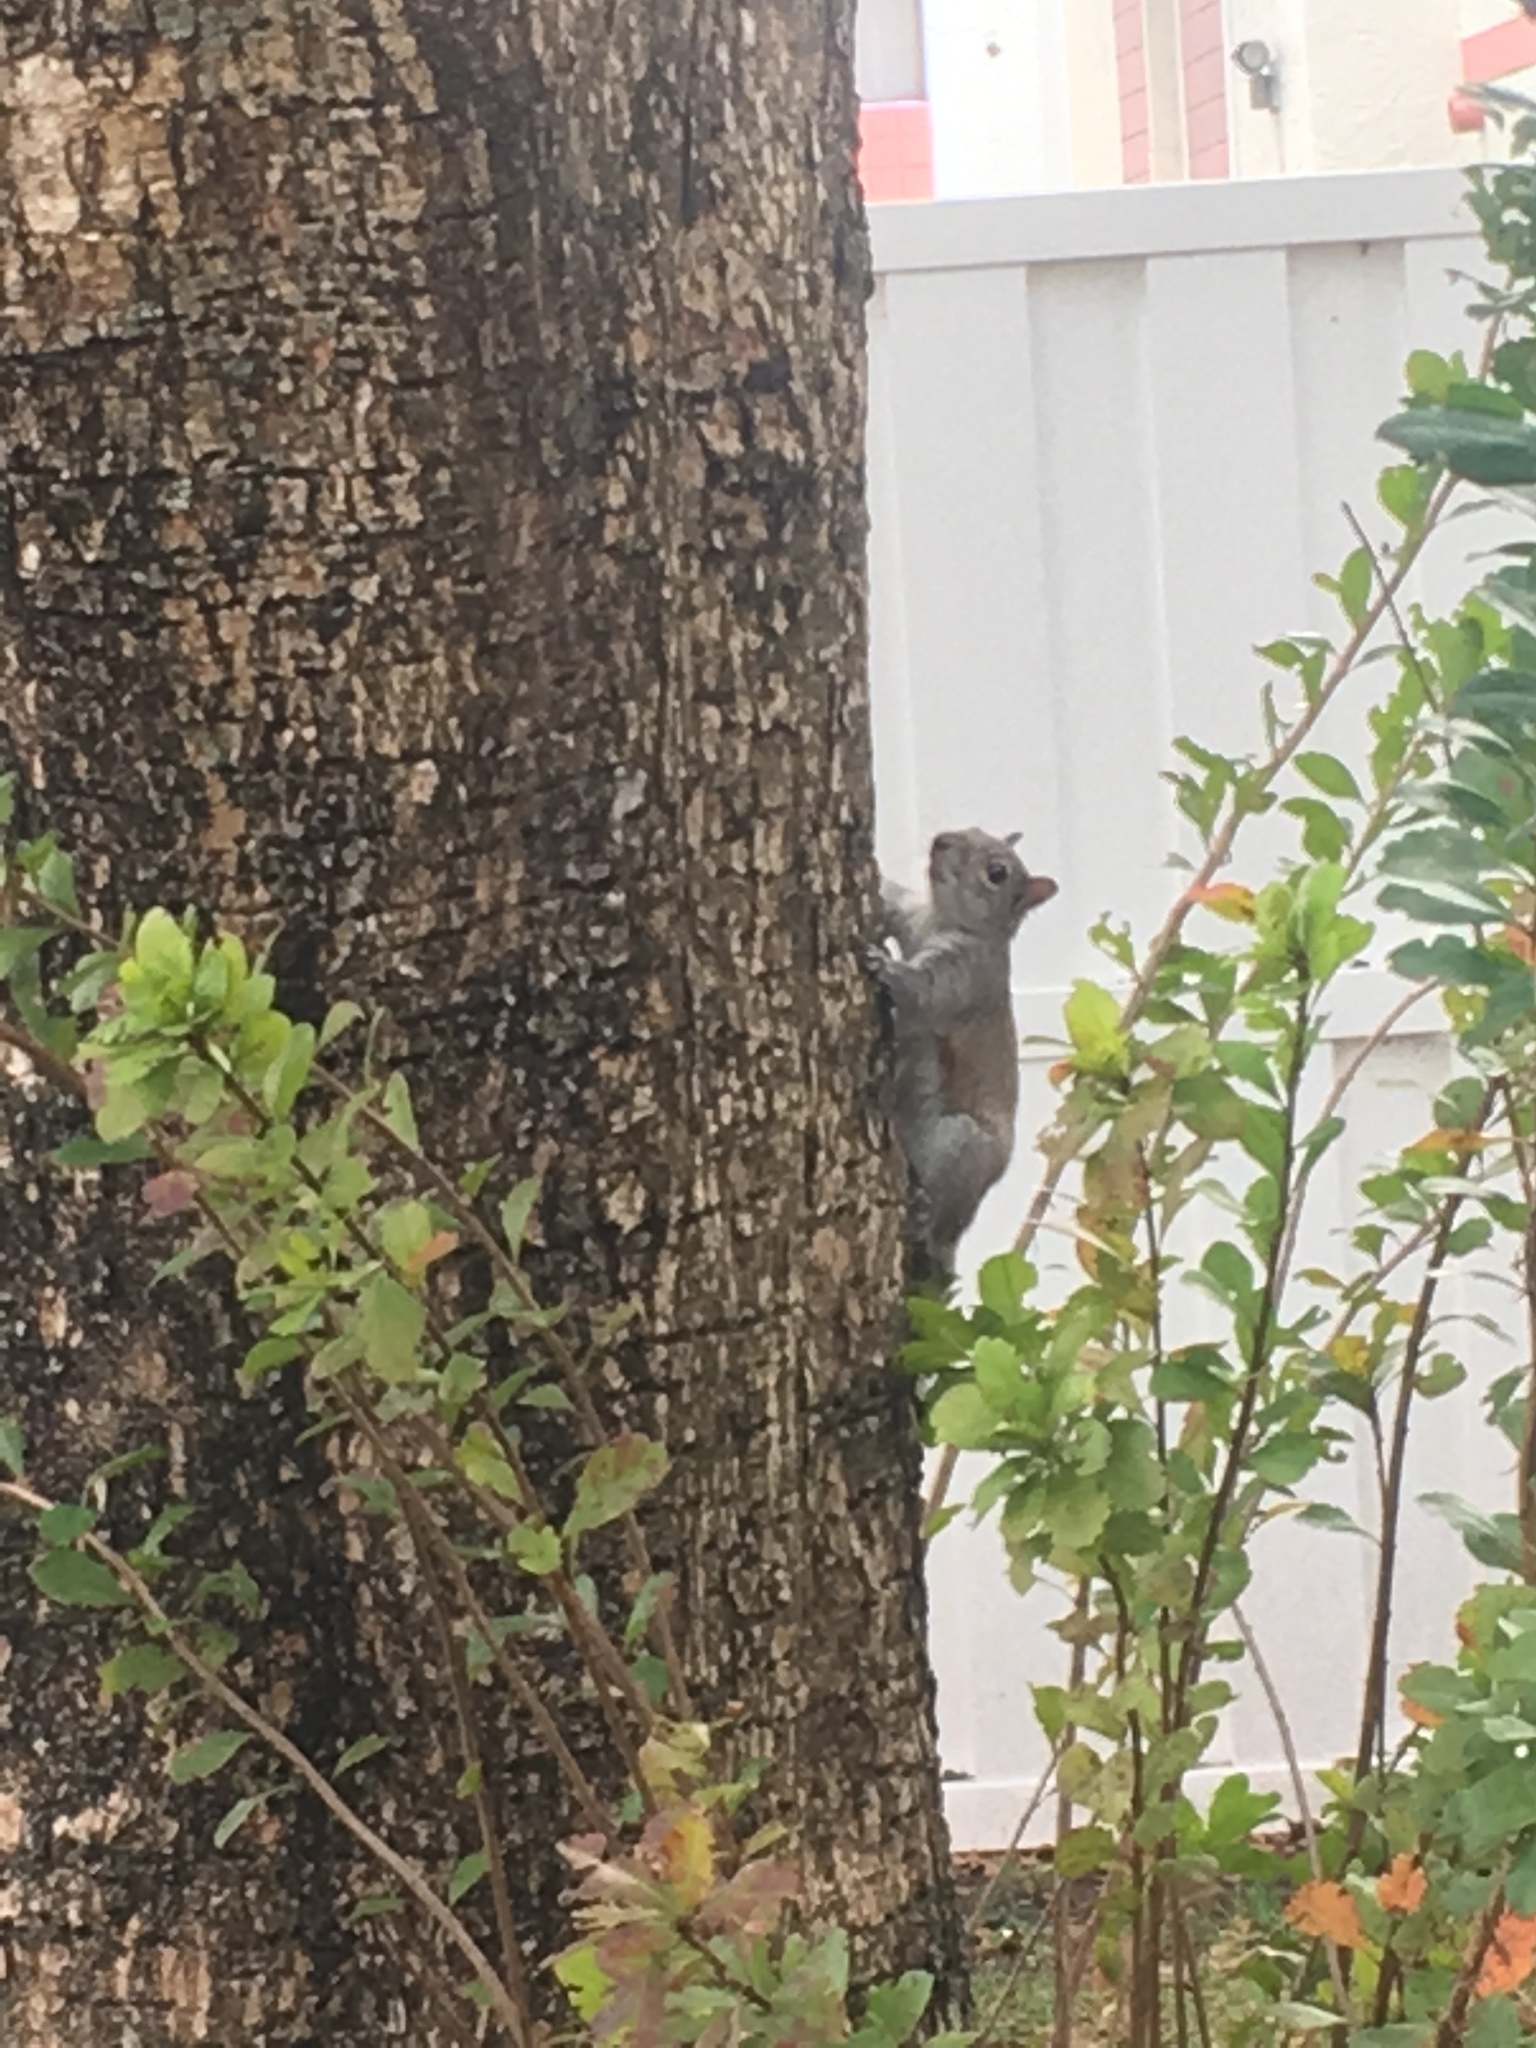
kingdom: Animalia
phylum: Chordata
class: Mammalia
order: Rodentia
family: Sciuridae
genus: Sciurus
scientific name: Sciurus carolinensis
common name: Eastern gray squirrel
